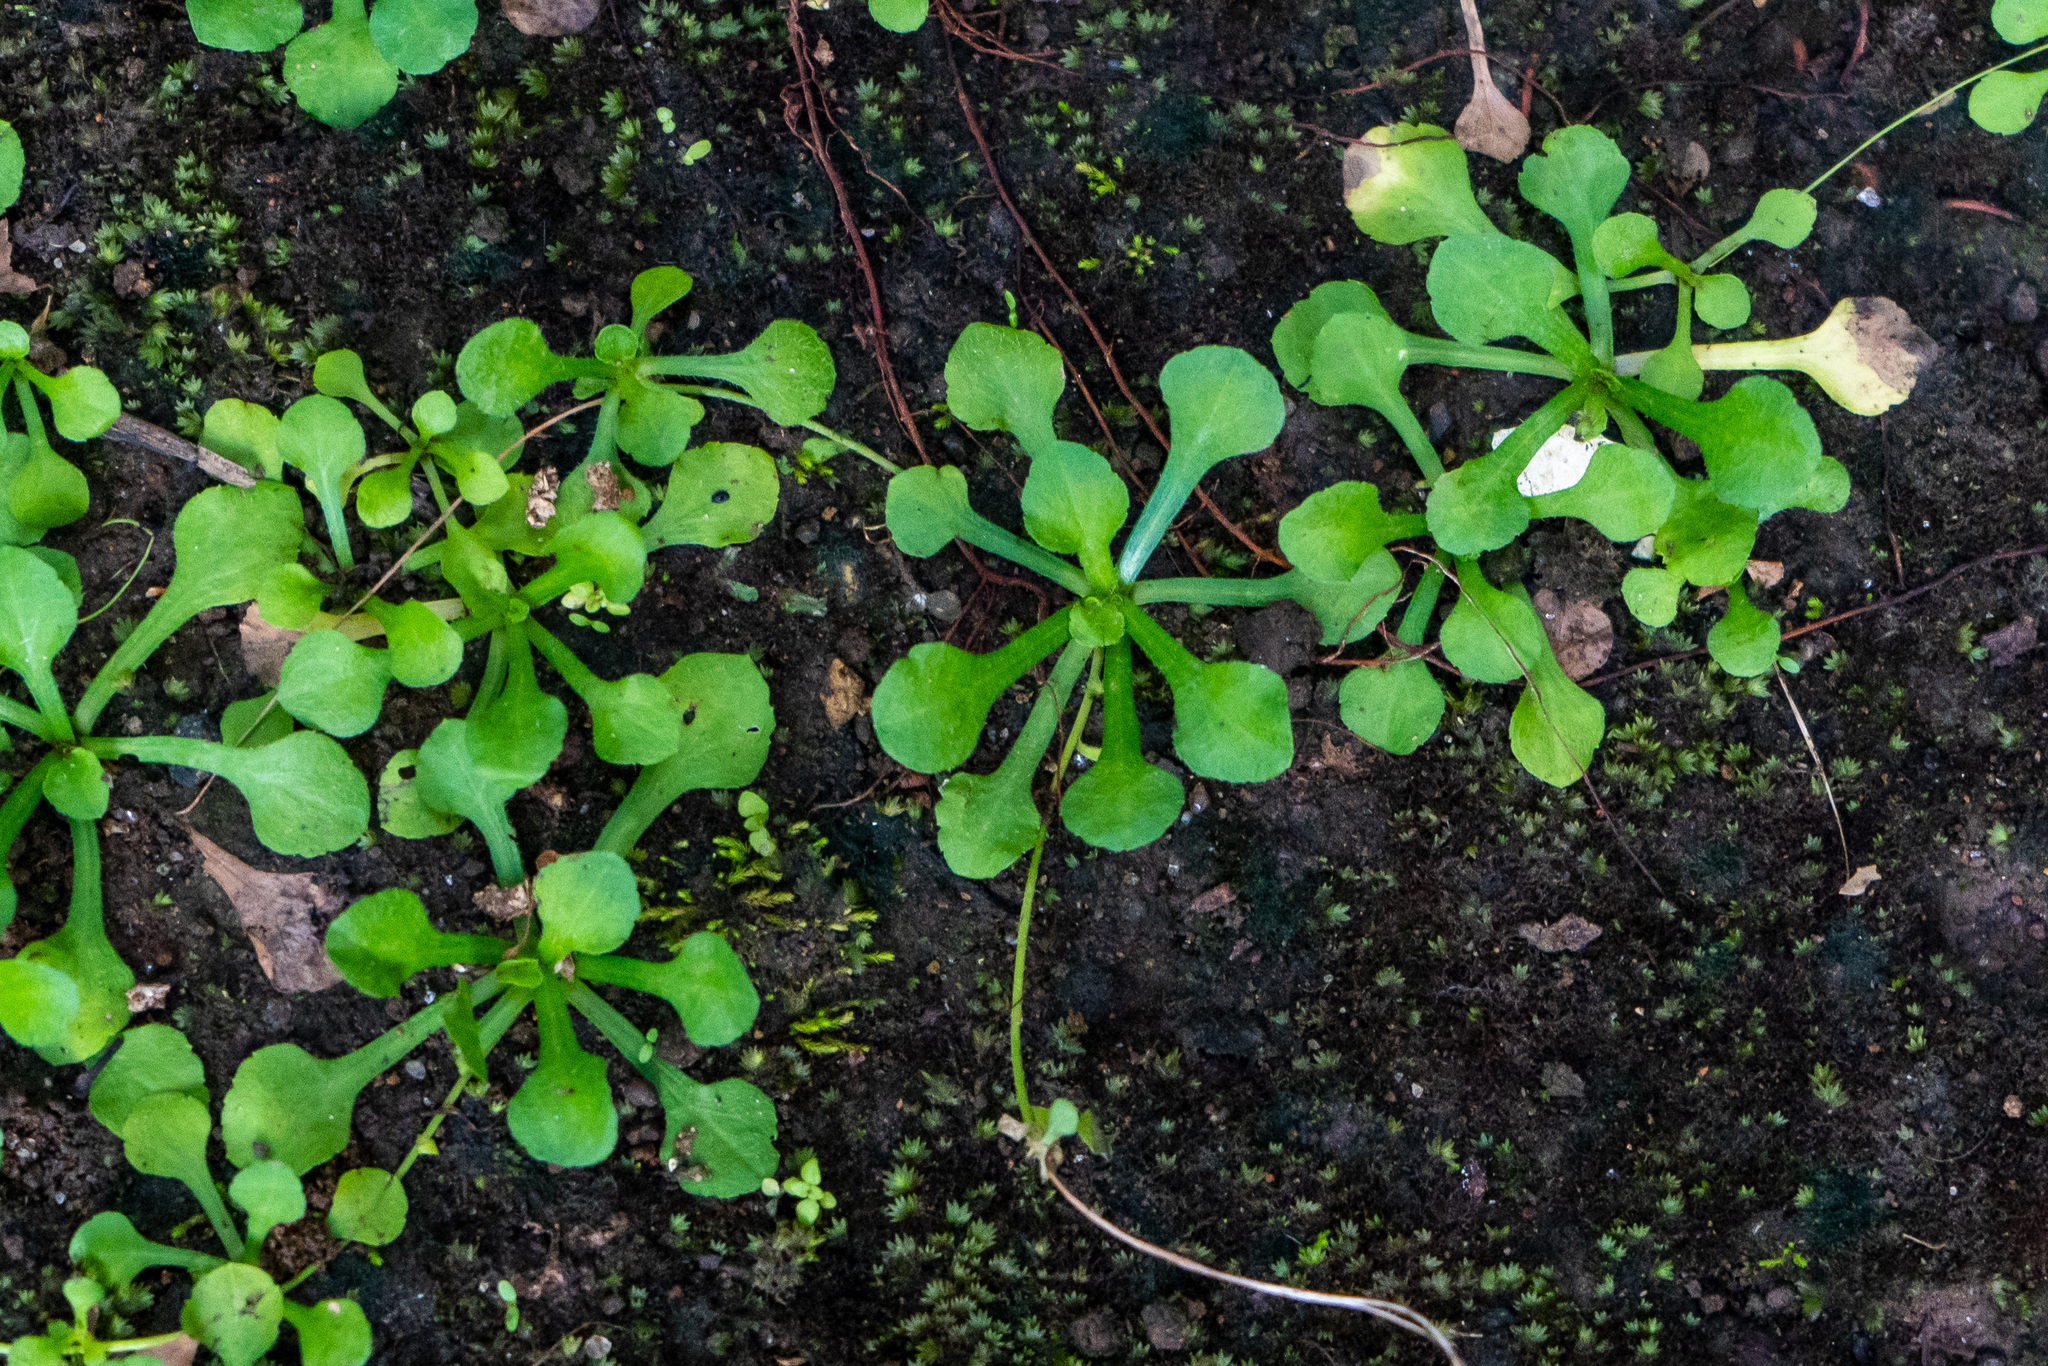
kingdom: Plantae
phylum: Tracheophyta
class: Magnoliopsida
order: Asterales
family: Asteraceae
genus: Erigeron
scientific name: Erigeron bellioides
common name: Bellorita
